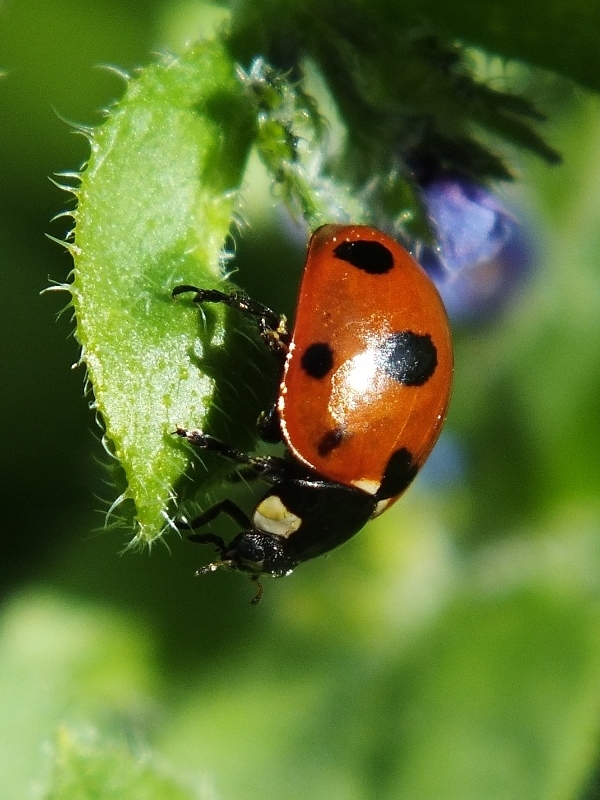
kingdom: Animalia
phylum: Arthropoda
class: Insecta
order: Coleoptera
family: Coccinellidae
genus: Coccinella
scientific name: Coccinella magnifica
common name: Scarce 7-spot ladybird
